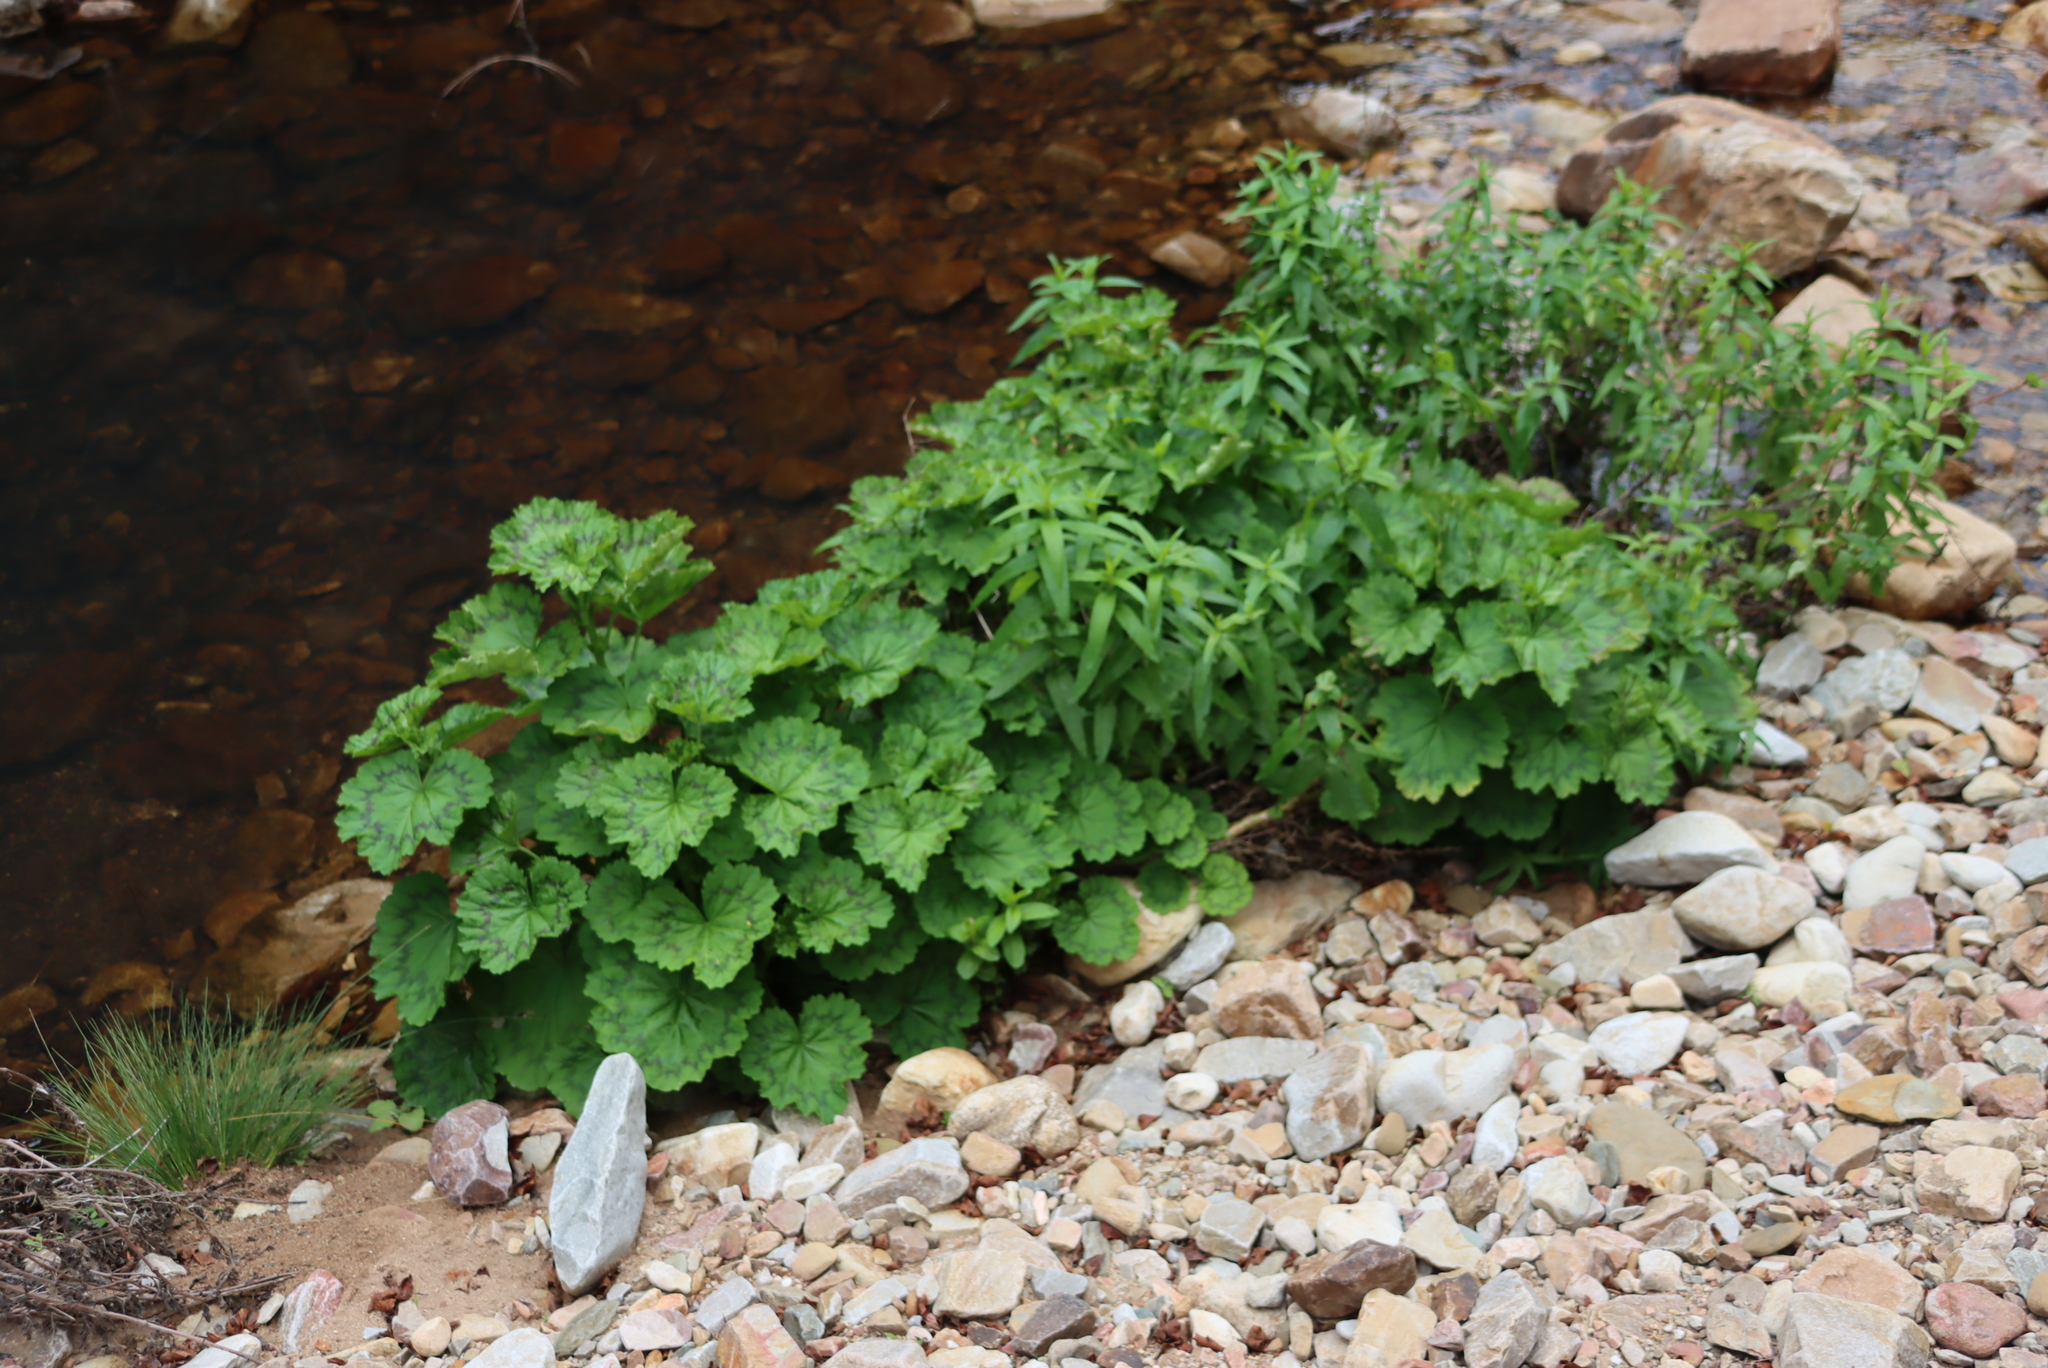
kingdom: Plantae
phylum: Tracheophyta
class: Magnoliopsida
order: Geraniales
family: Geraniaceae
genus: Pelargonium
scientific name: Pelargonium zonale
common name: Horseshoe geranium
